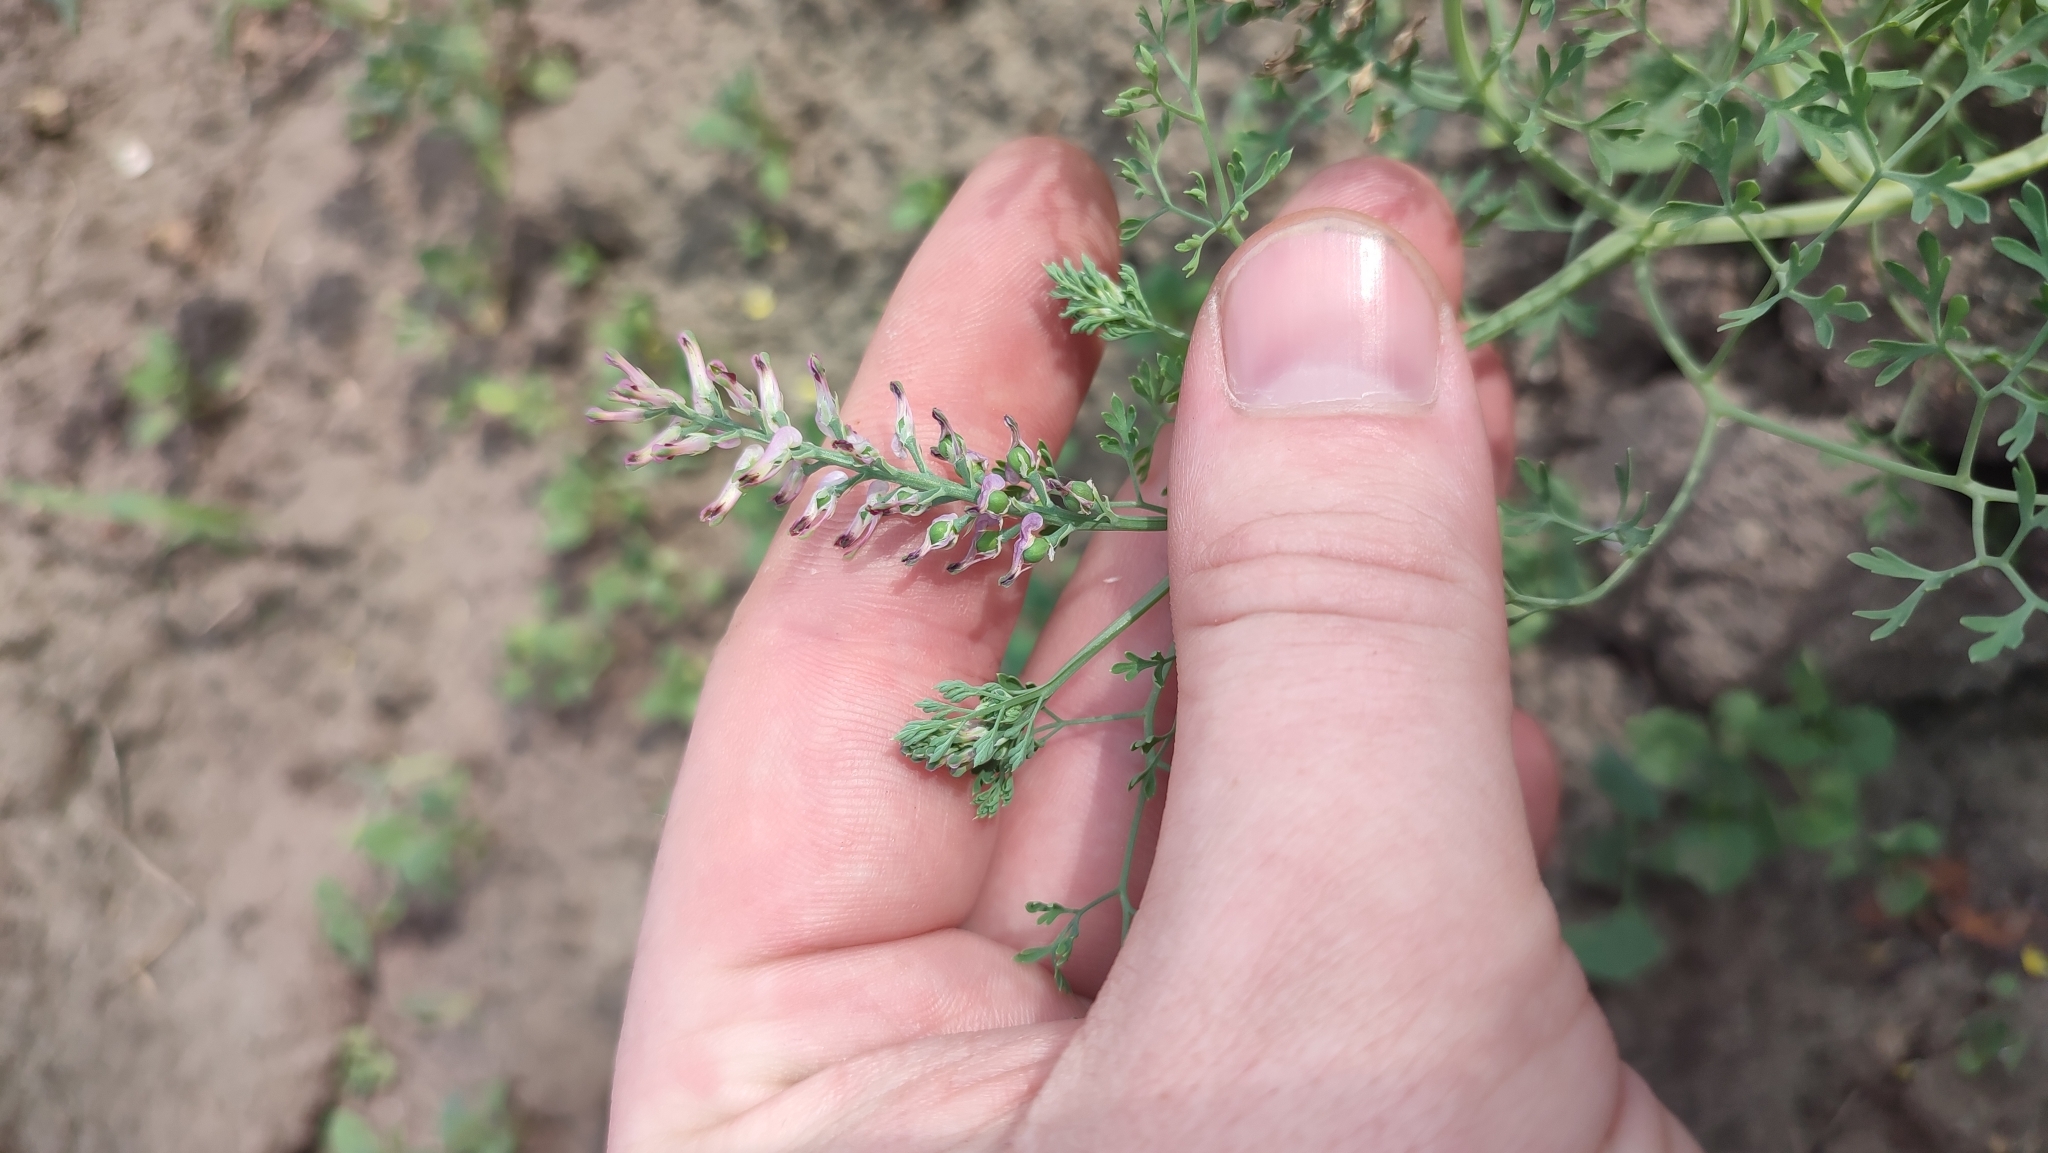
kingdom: Plantae
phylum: Tracheophyta
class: Magnoliopsida
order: Ranunculales
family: Papaveraceae
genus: Fumaria
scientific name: Fumaria officinalis
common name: Common fumitory
